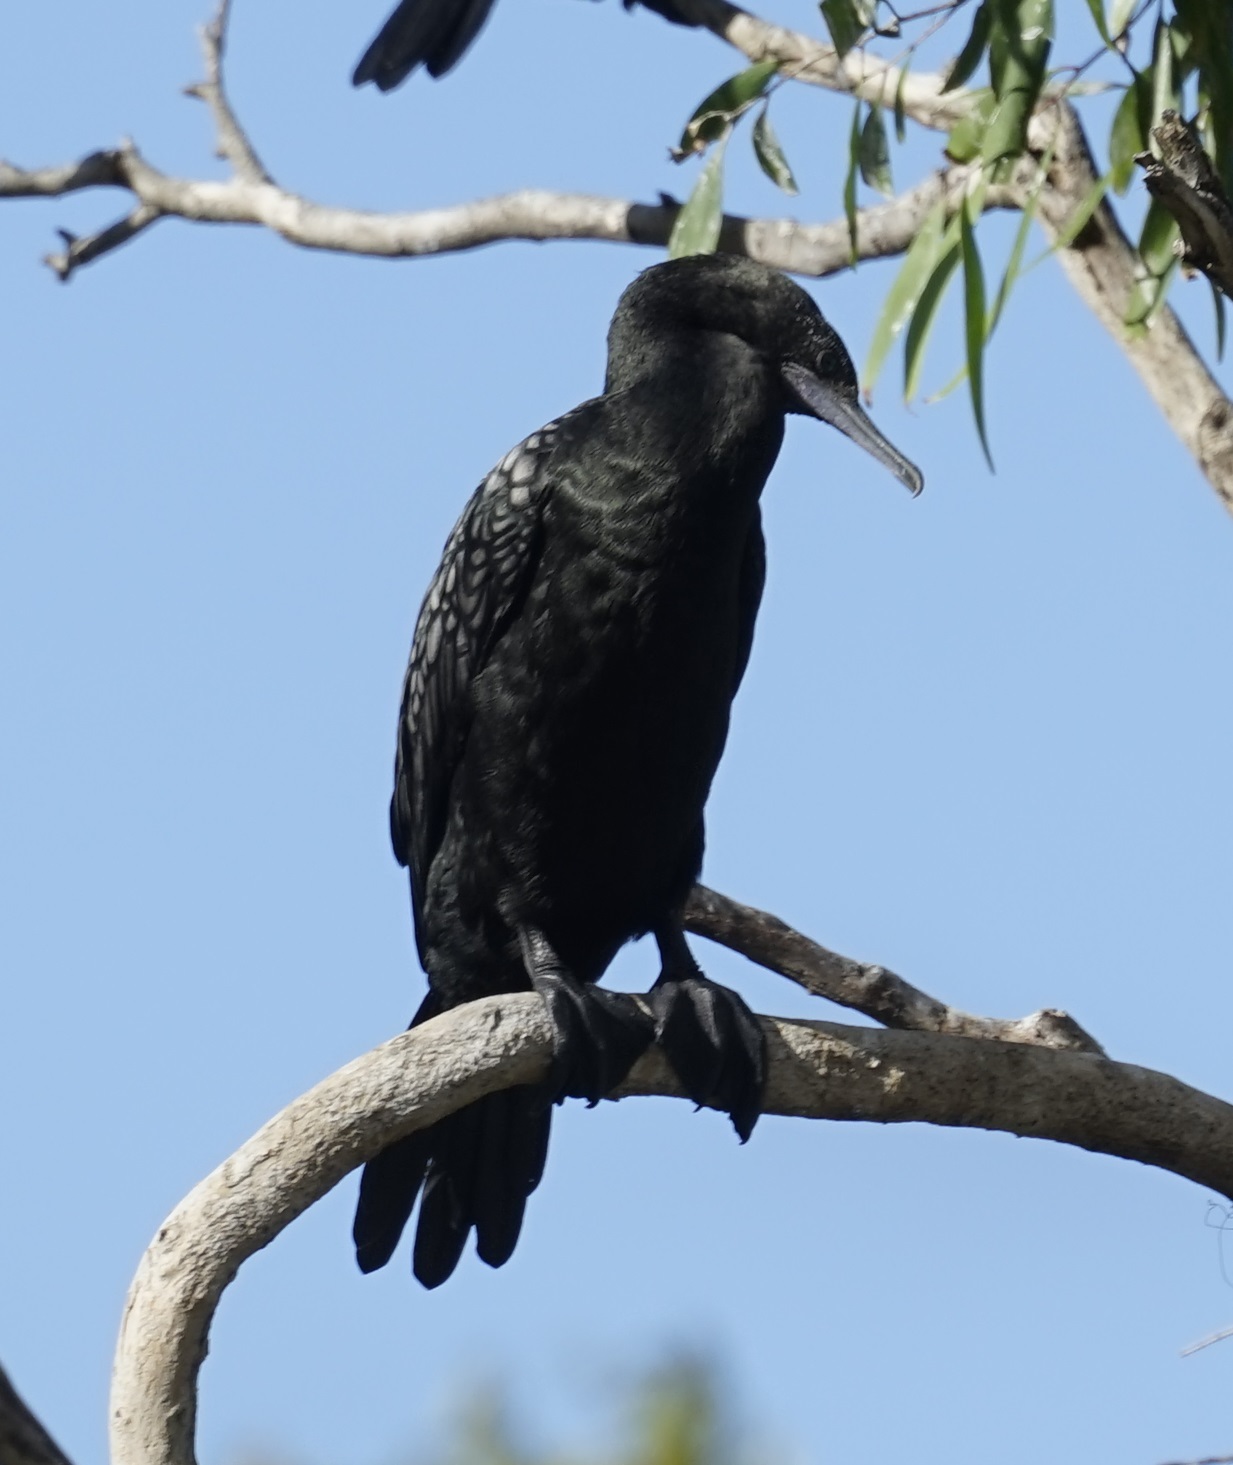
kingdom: Animalia
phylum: Chordata
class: Aves
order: Suliformes
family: Phalacrocoracidae
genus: Phalacrocorax
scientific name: Phalacrocorax sulcirostris
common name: Little black cormorant
